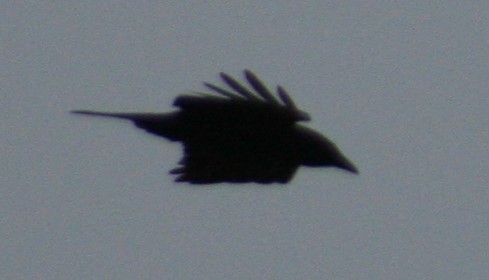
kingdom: Animalia
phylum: Chordata
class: Aves
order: Passeriformes
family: Corvidae
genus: Corvus
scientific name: Corvus brachyrhynchos
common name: American crow
